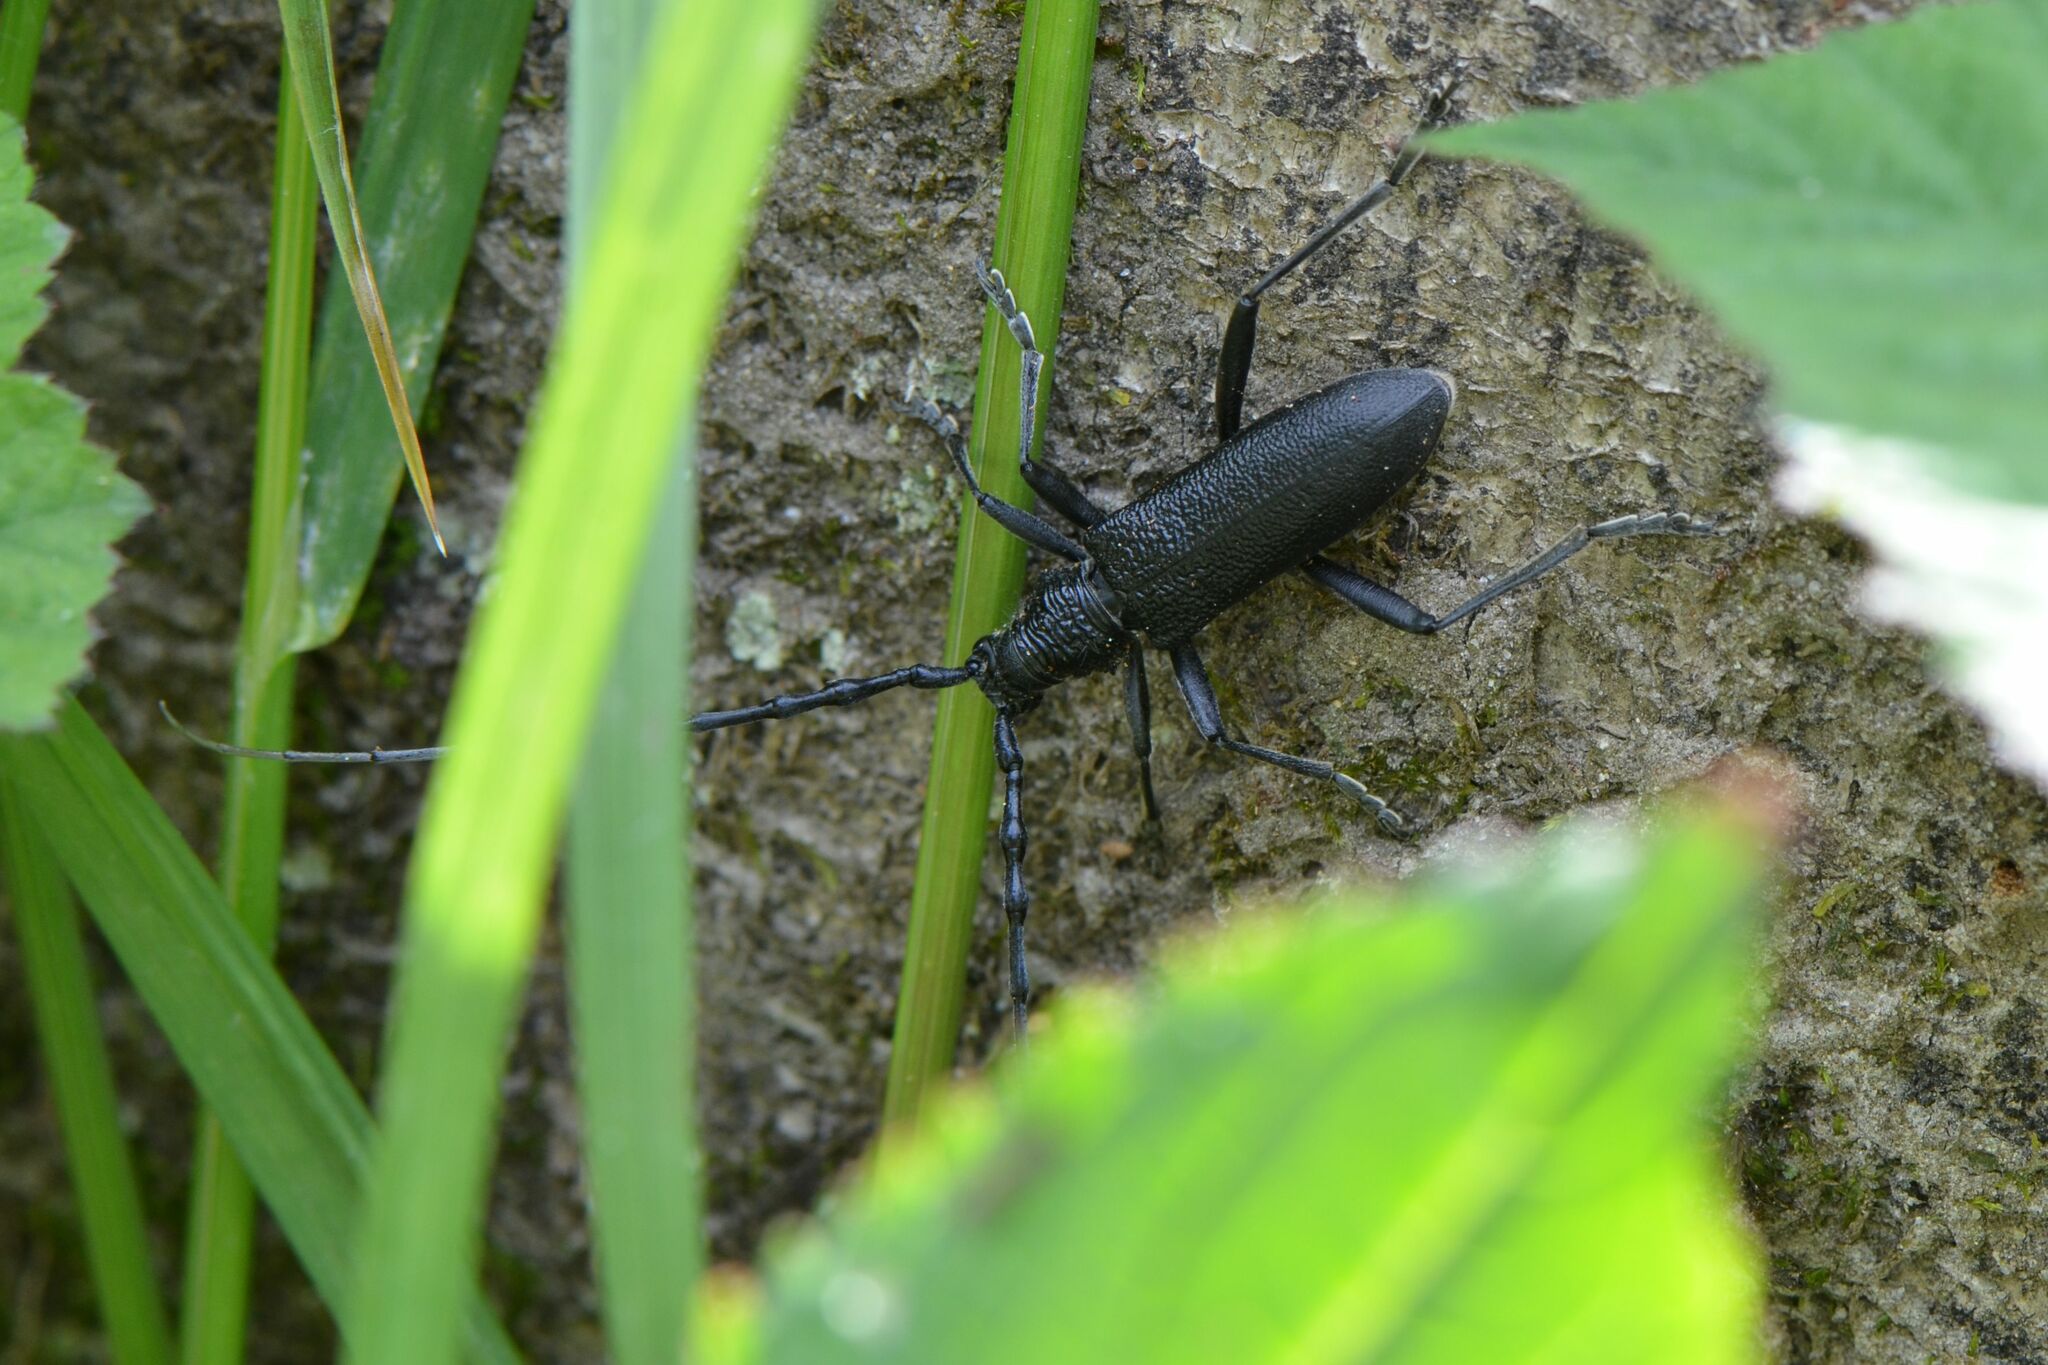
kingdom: Animalia
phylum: Arthropoda
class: Insecta
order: Coleoptera
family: Cerambycidae
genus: Cerambyx
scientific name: Cerambyx scopolii
